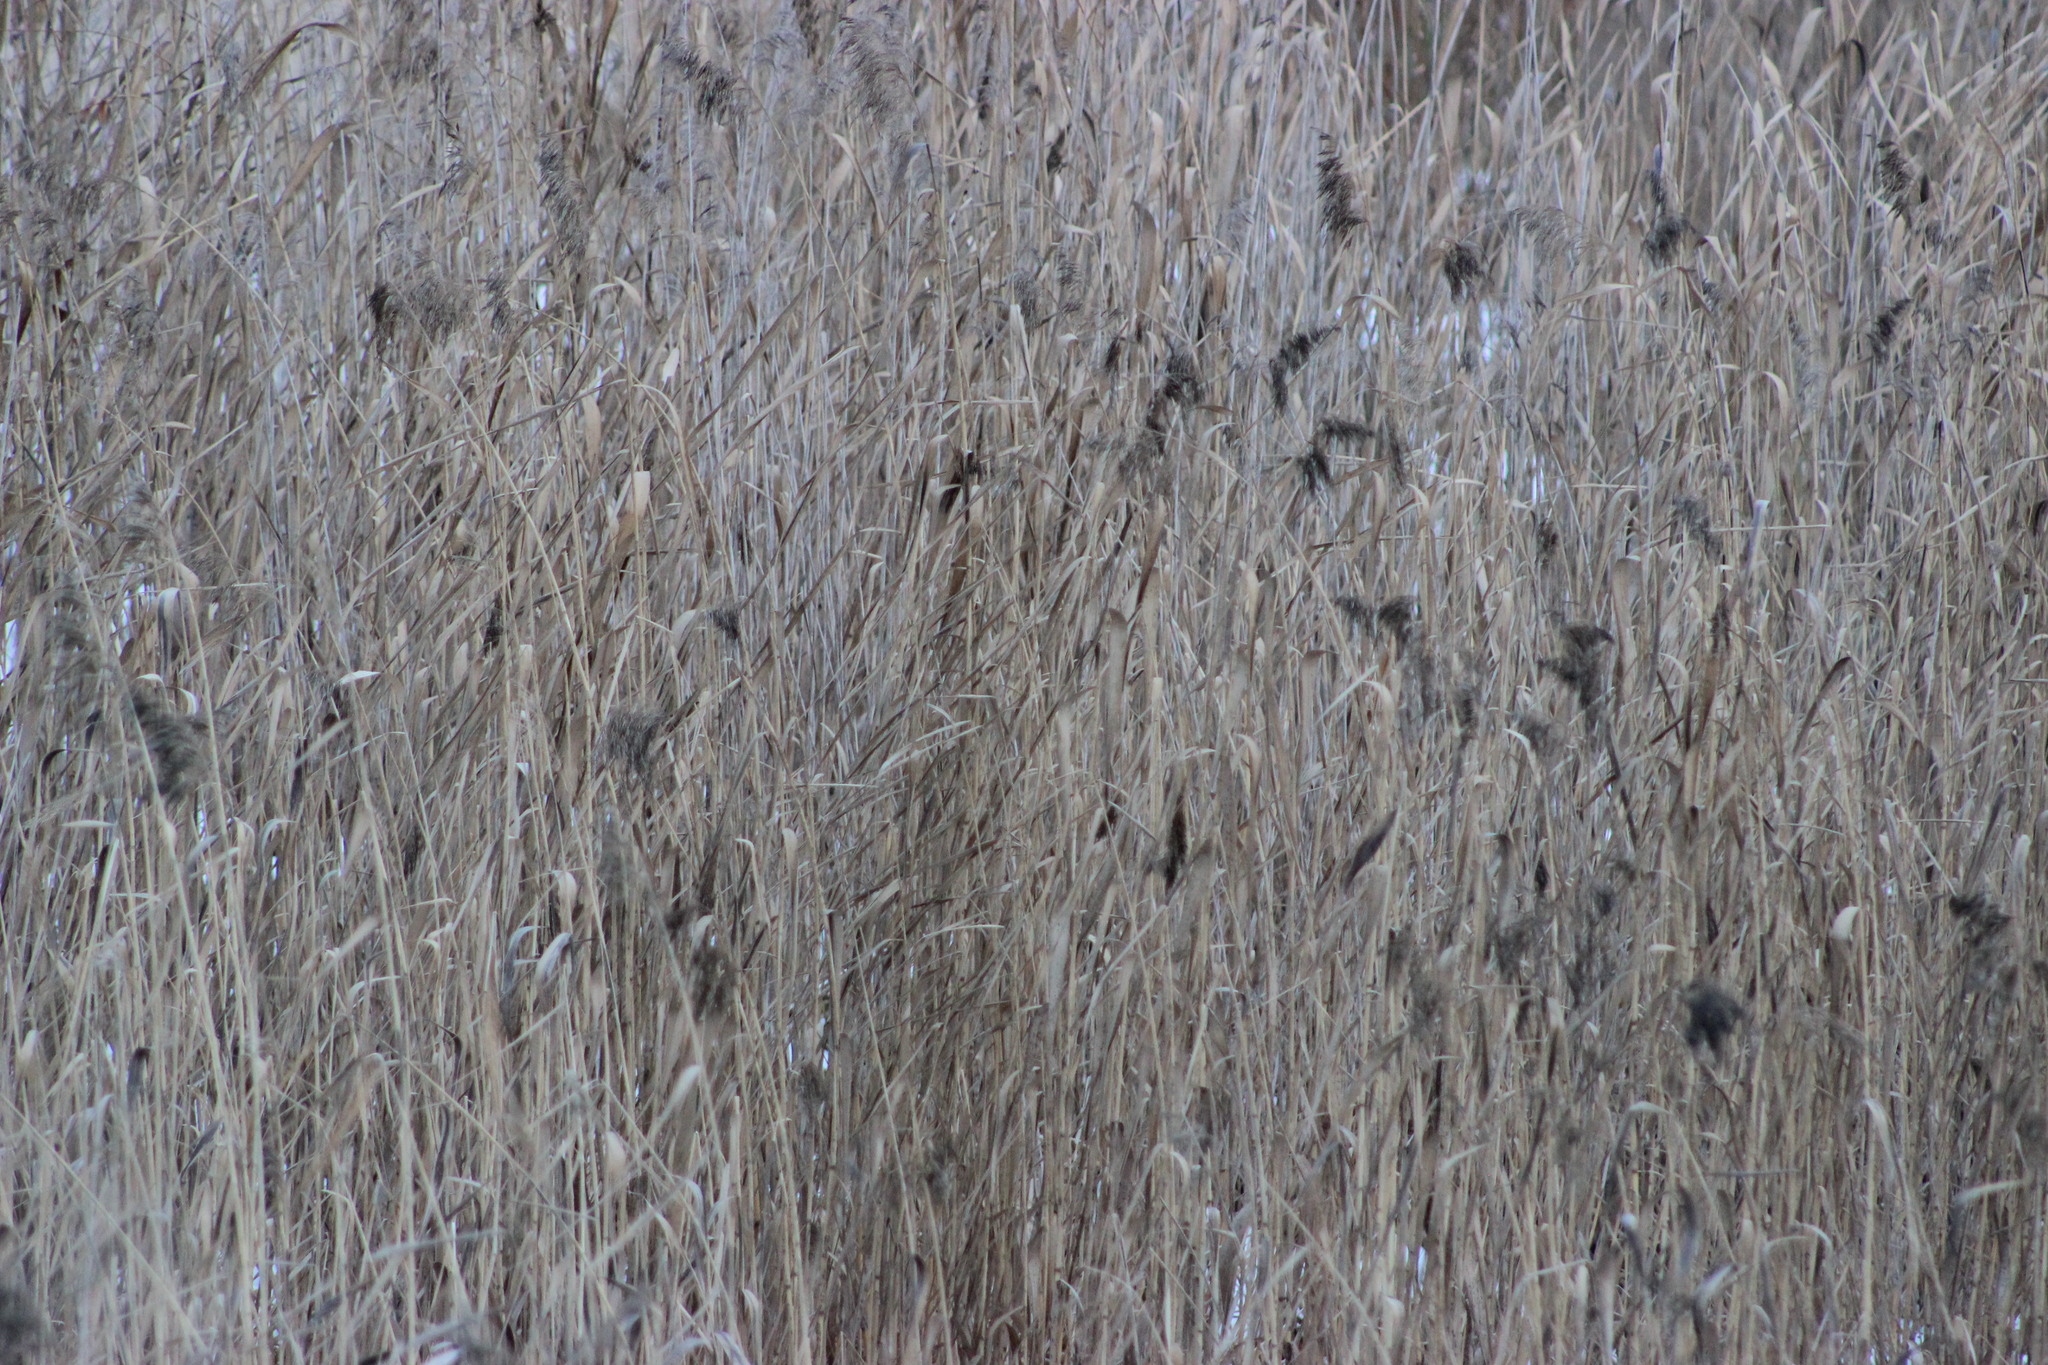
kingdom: Plantae
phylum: Tracheophyta
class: Liliopsida
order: Poales
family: Poaceae
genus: Phragmites
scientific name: Phragmites australis
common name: Common reed
